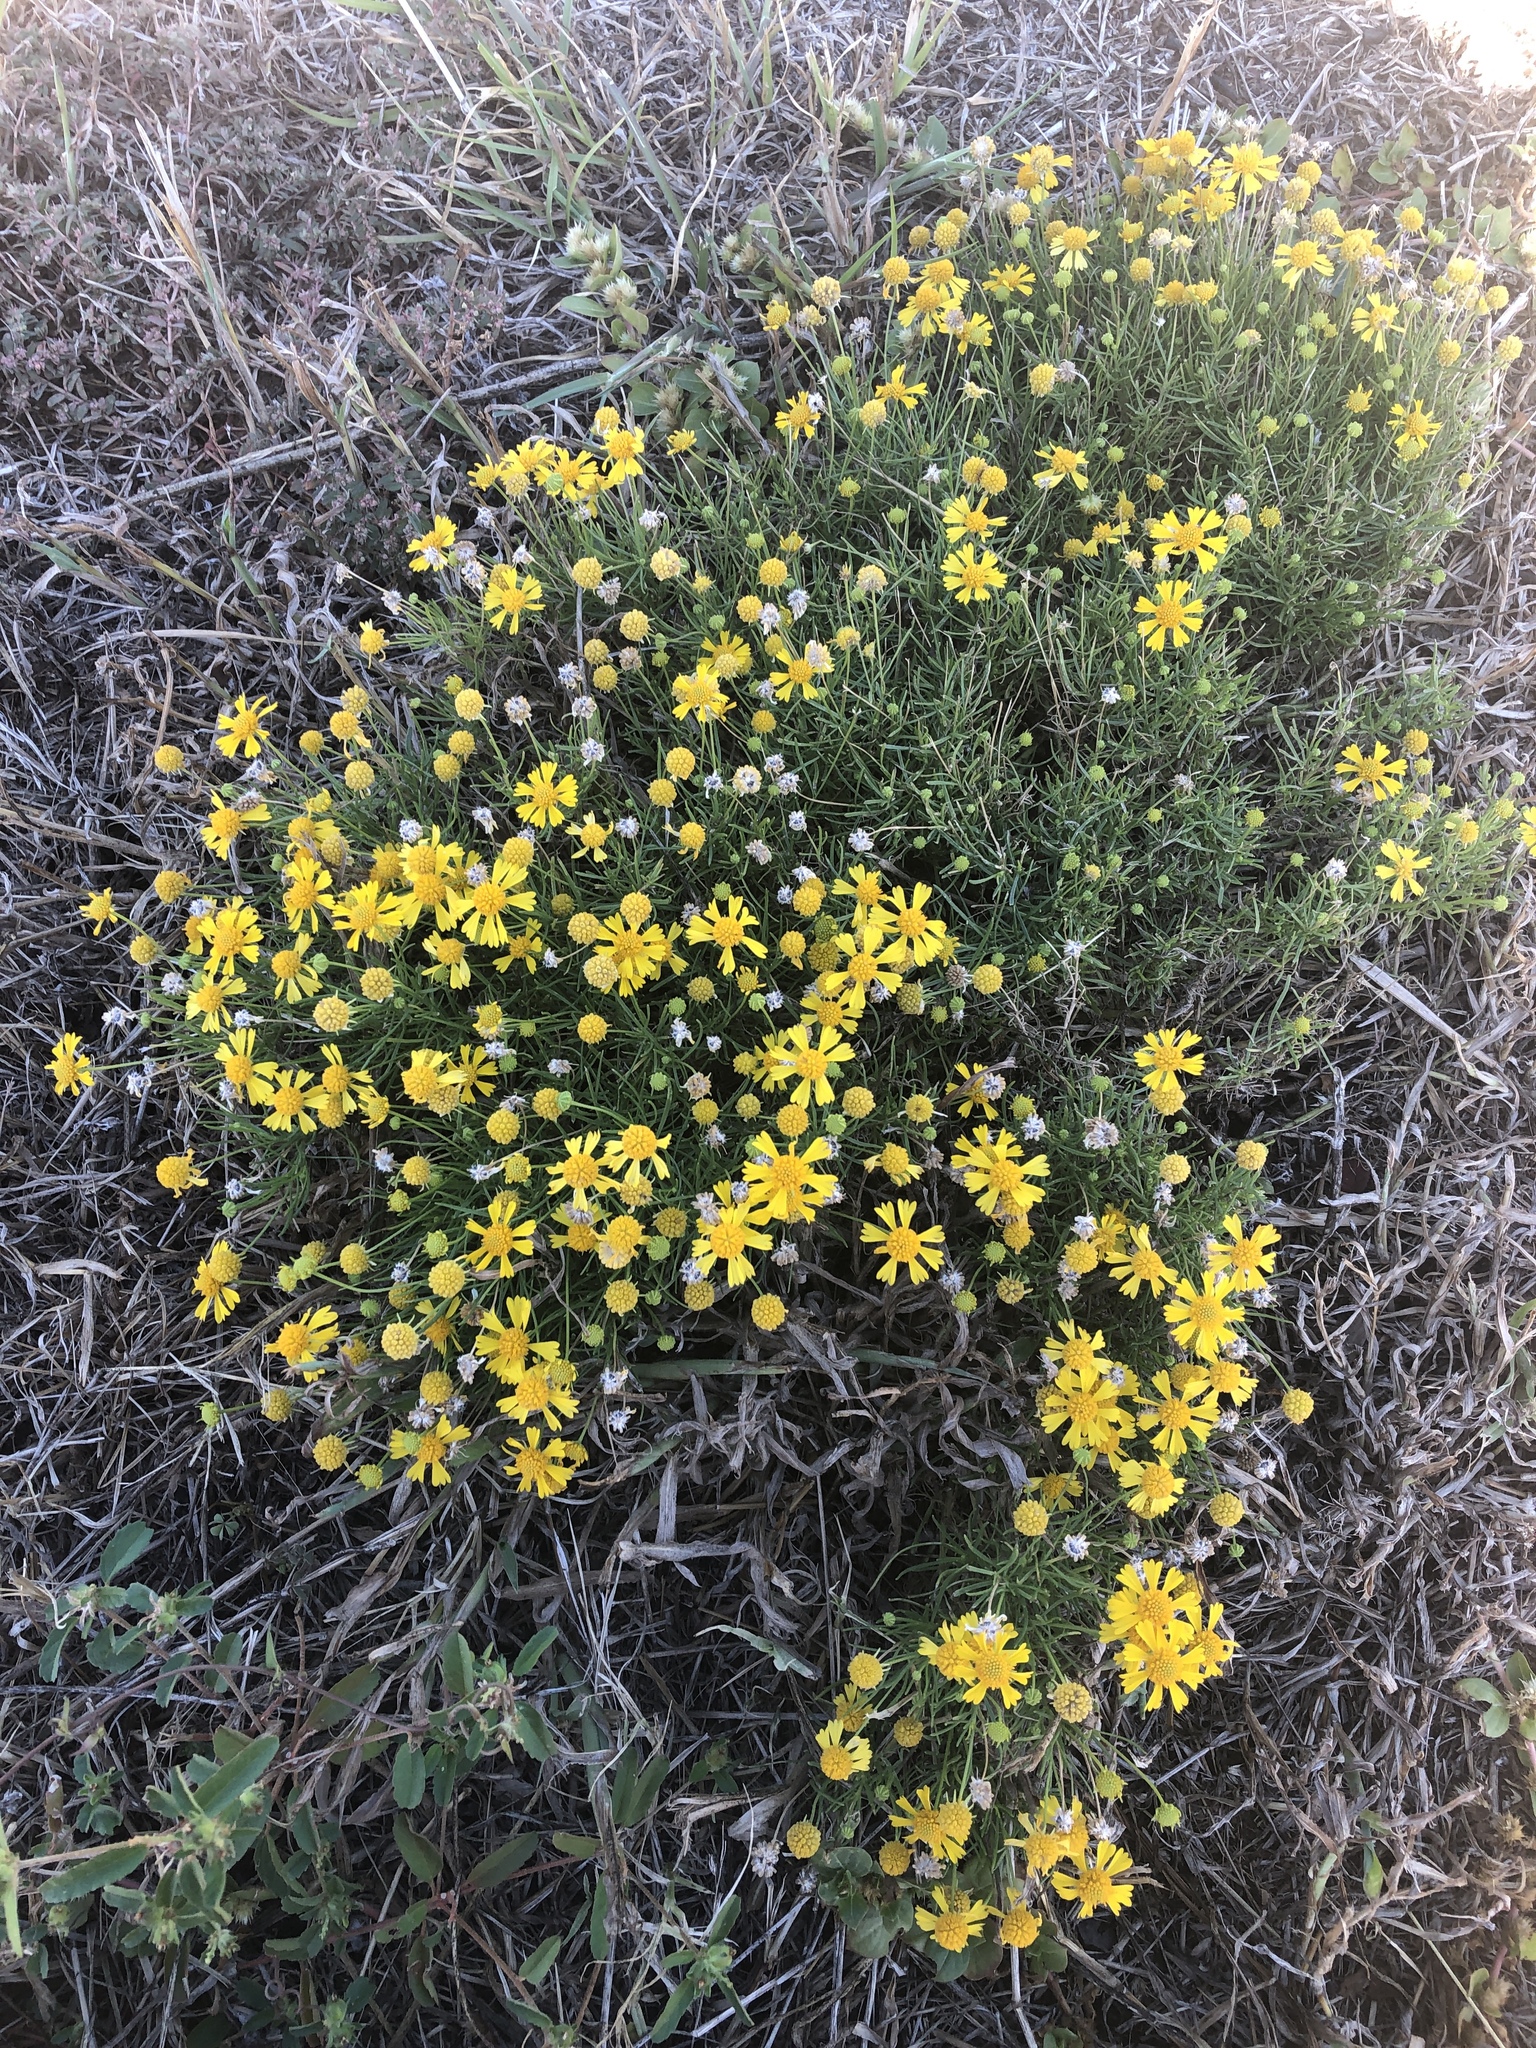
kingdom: Plantae
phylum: Tracheophyta
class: Magnoliopsida
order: Asterales
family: Asteraceae
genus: Helenium
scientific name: Helenium amarum
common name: Bitter sneezeweed
